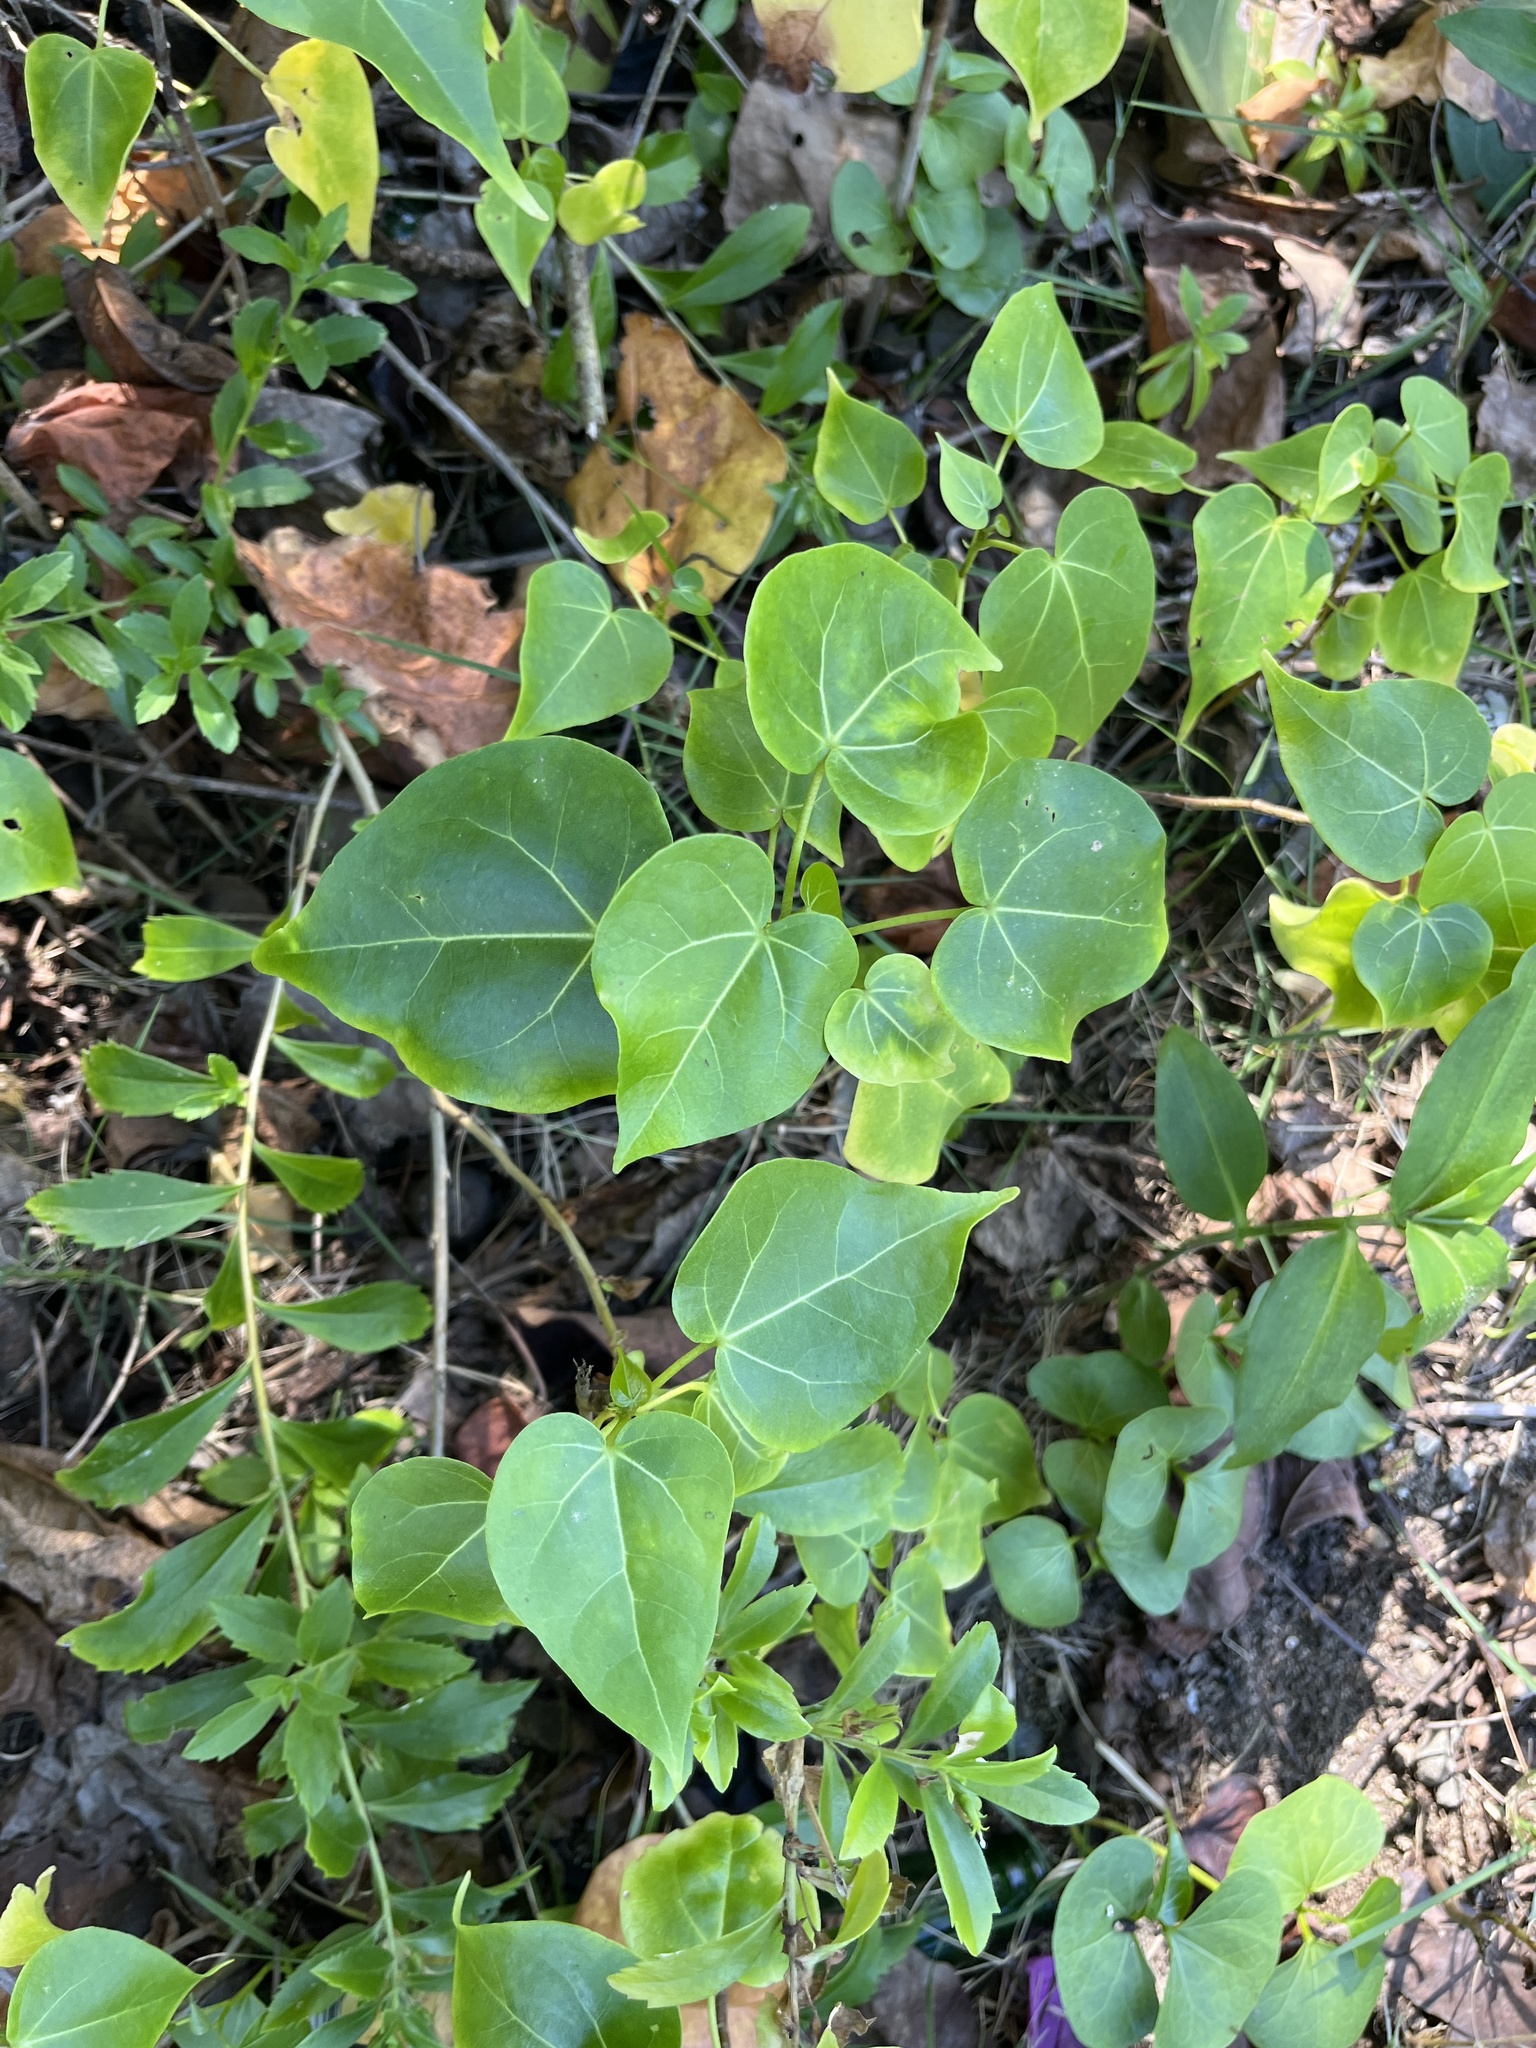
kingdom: Plantae
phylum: Tracheophyta
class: Magnoliopsida
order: Malvales
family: Malvaceae
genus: Thespesia
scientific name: Thespesia populnea
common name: Seaside mahoe
